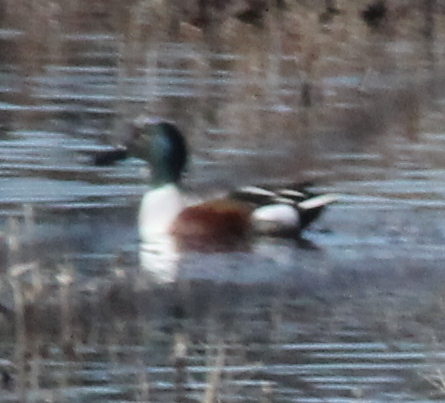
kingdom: Animalia
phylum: Chordata
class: Aves
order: Anseriformes
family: Anatidae
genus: Spatula
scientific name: Spatula clypeata
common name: Northern shoveler
